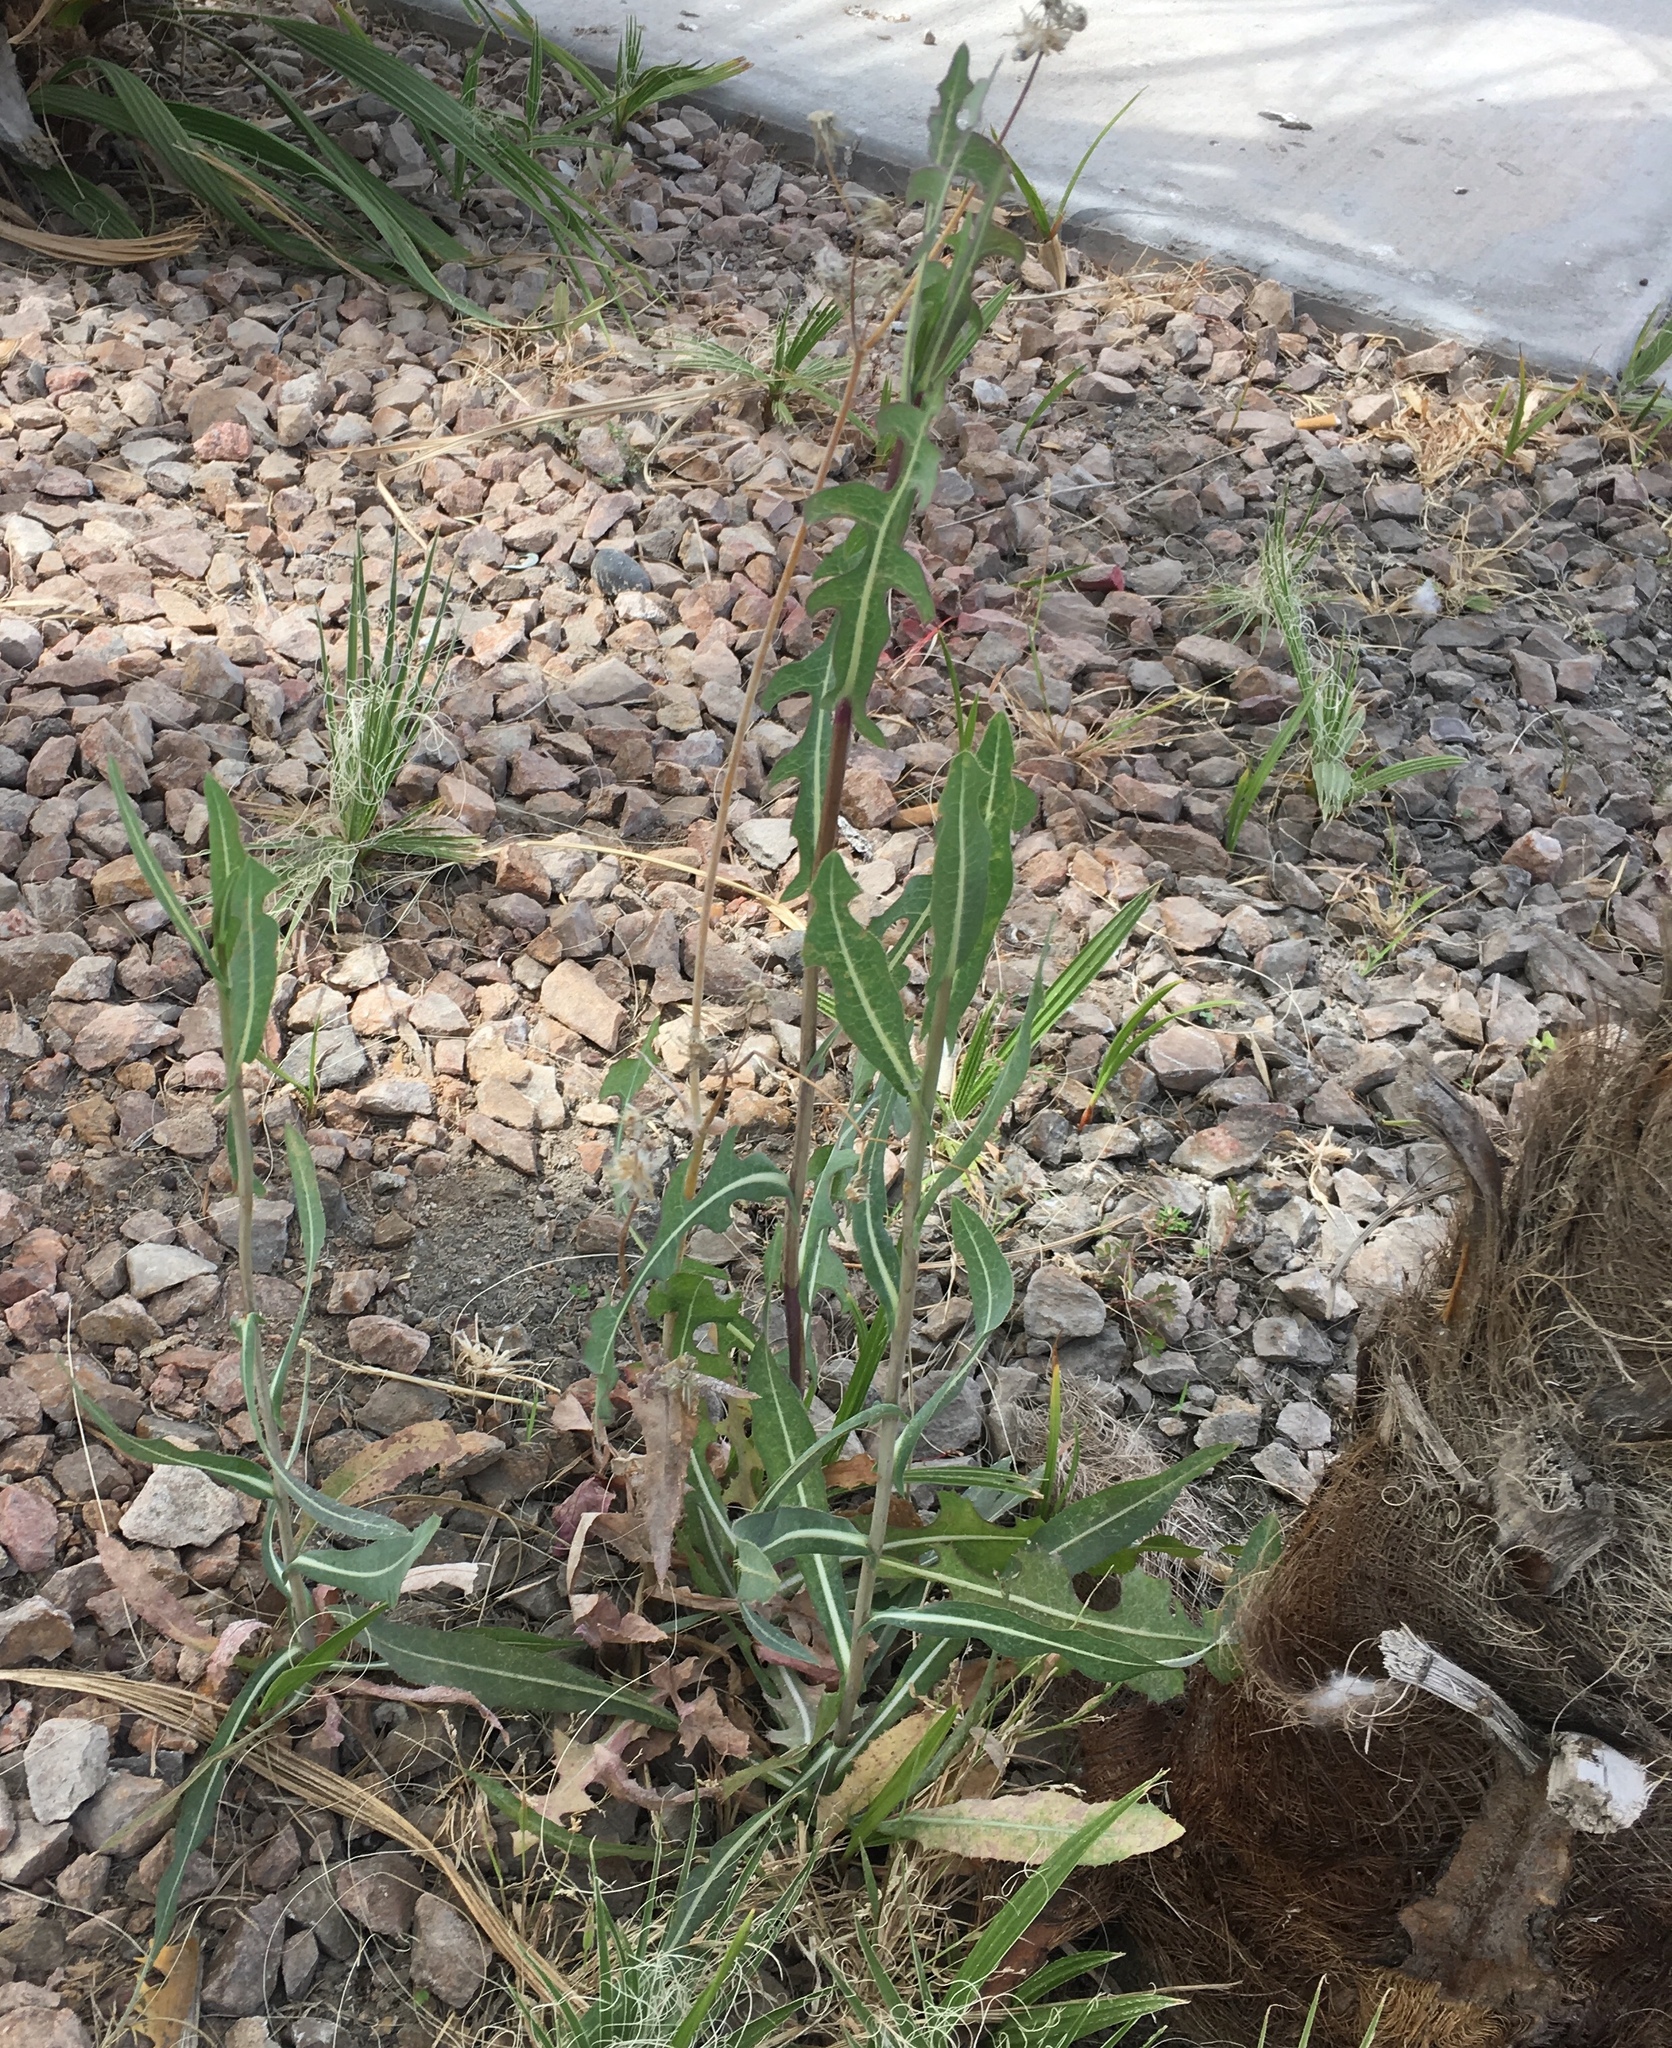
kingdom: Plantae
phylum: Tracheophyta
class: Magnoliopsida
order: Asterales
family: Asteraceae
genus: Lactuca
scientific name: Lactuca serriola
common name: Prickly lettuce
